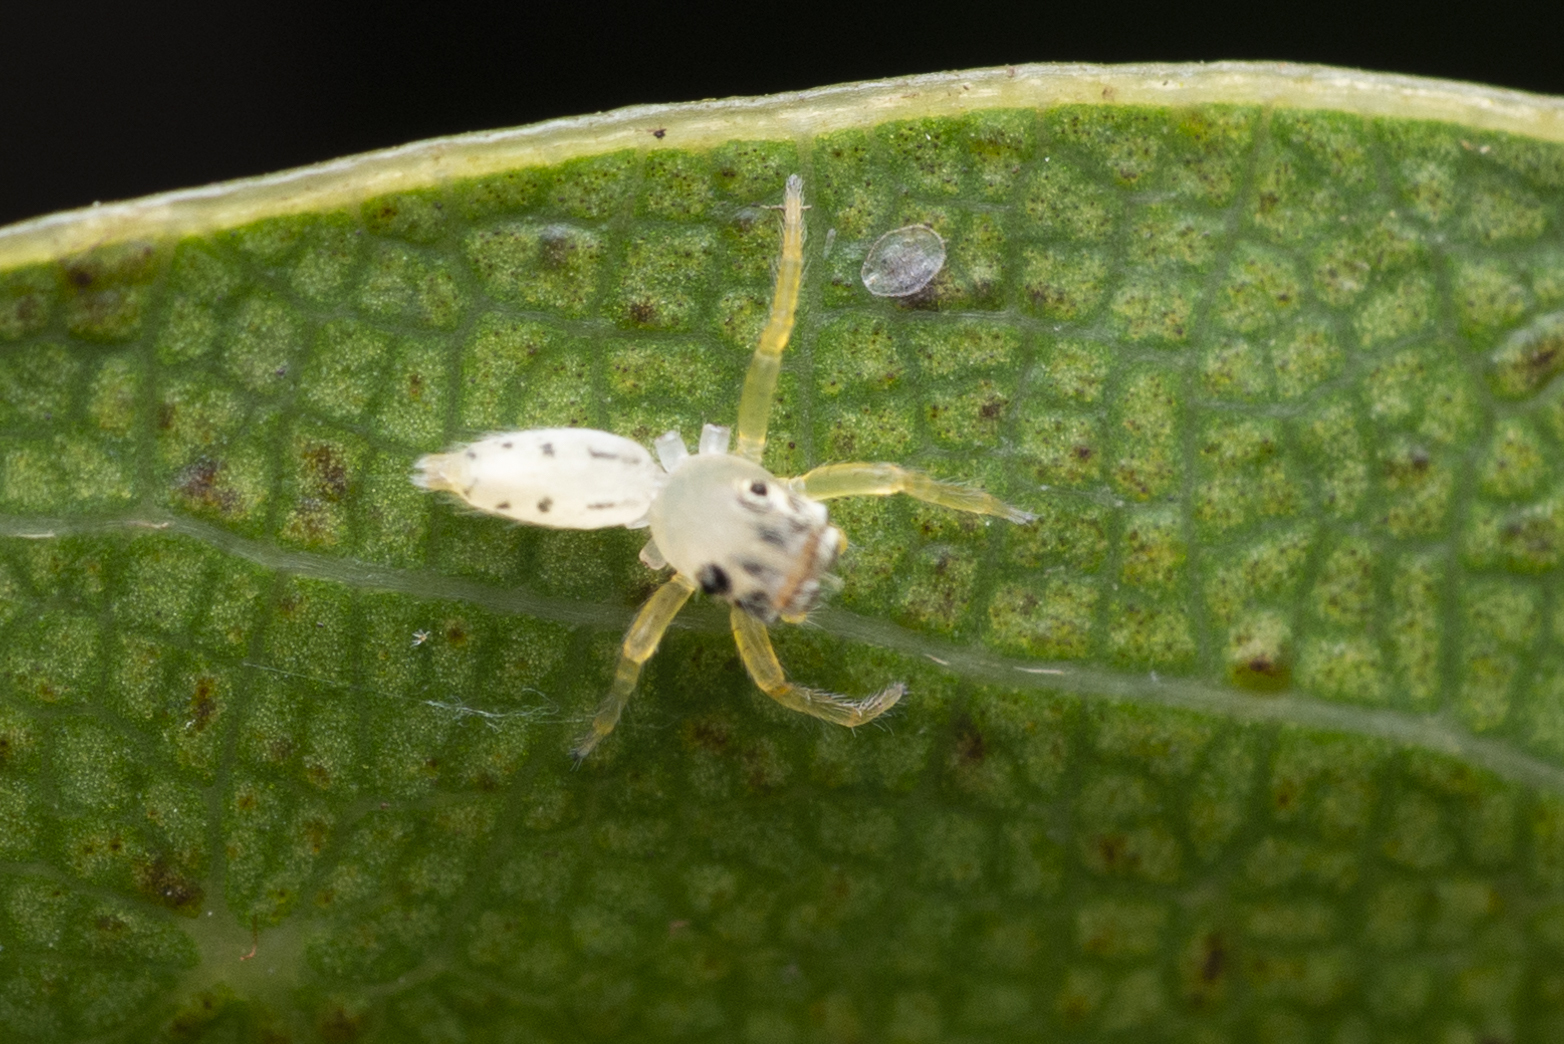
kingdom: Animalia
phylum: Arthropoda
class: Arachnida
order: Araneae
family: Salticidae
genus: Telamonia
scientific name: Telamonia caprina
